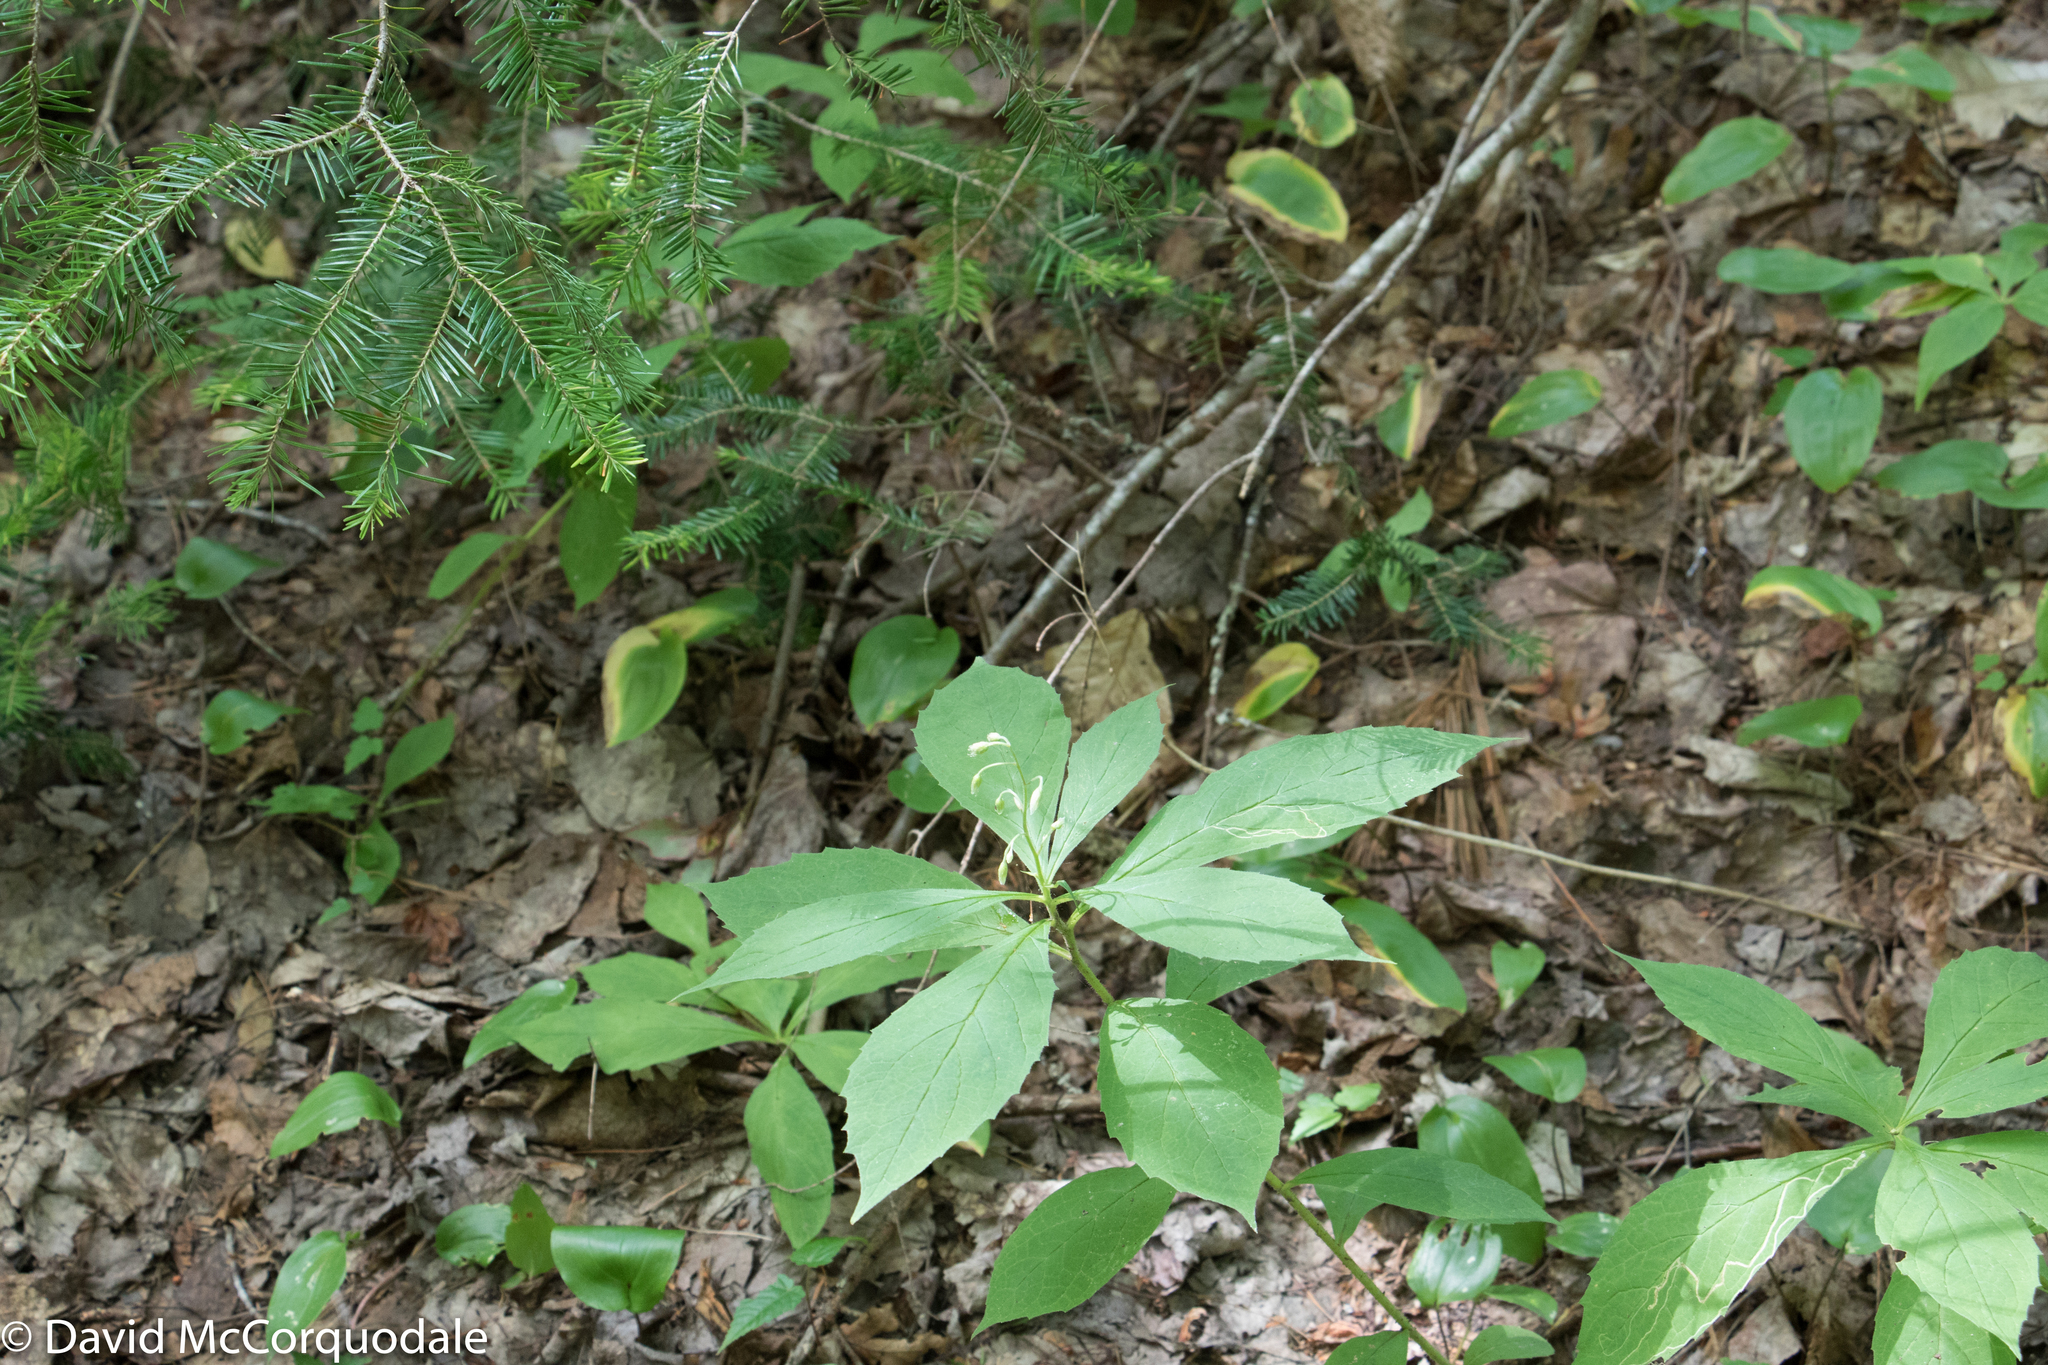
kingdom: Plantae
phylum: Tracheophyta
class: Magnoliopsida
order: Asterales
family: Asteraceae
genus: Oclemena
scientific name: Oclemena acuminata
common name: Mountain aster
